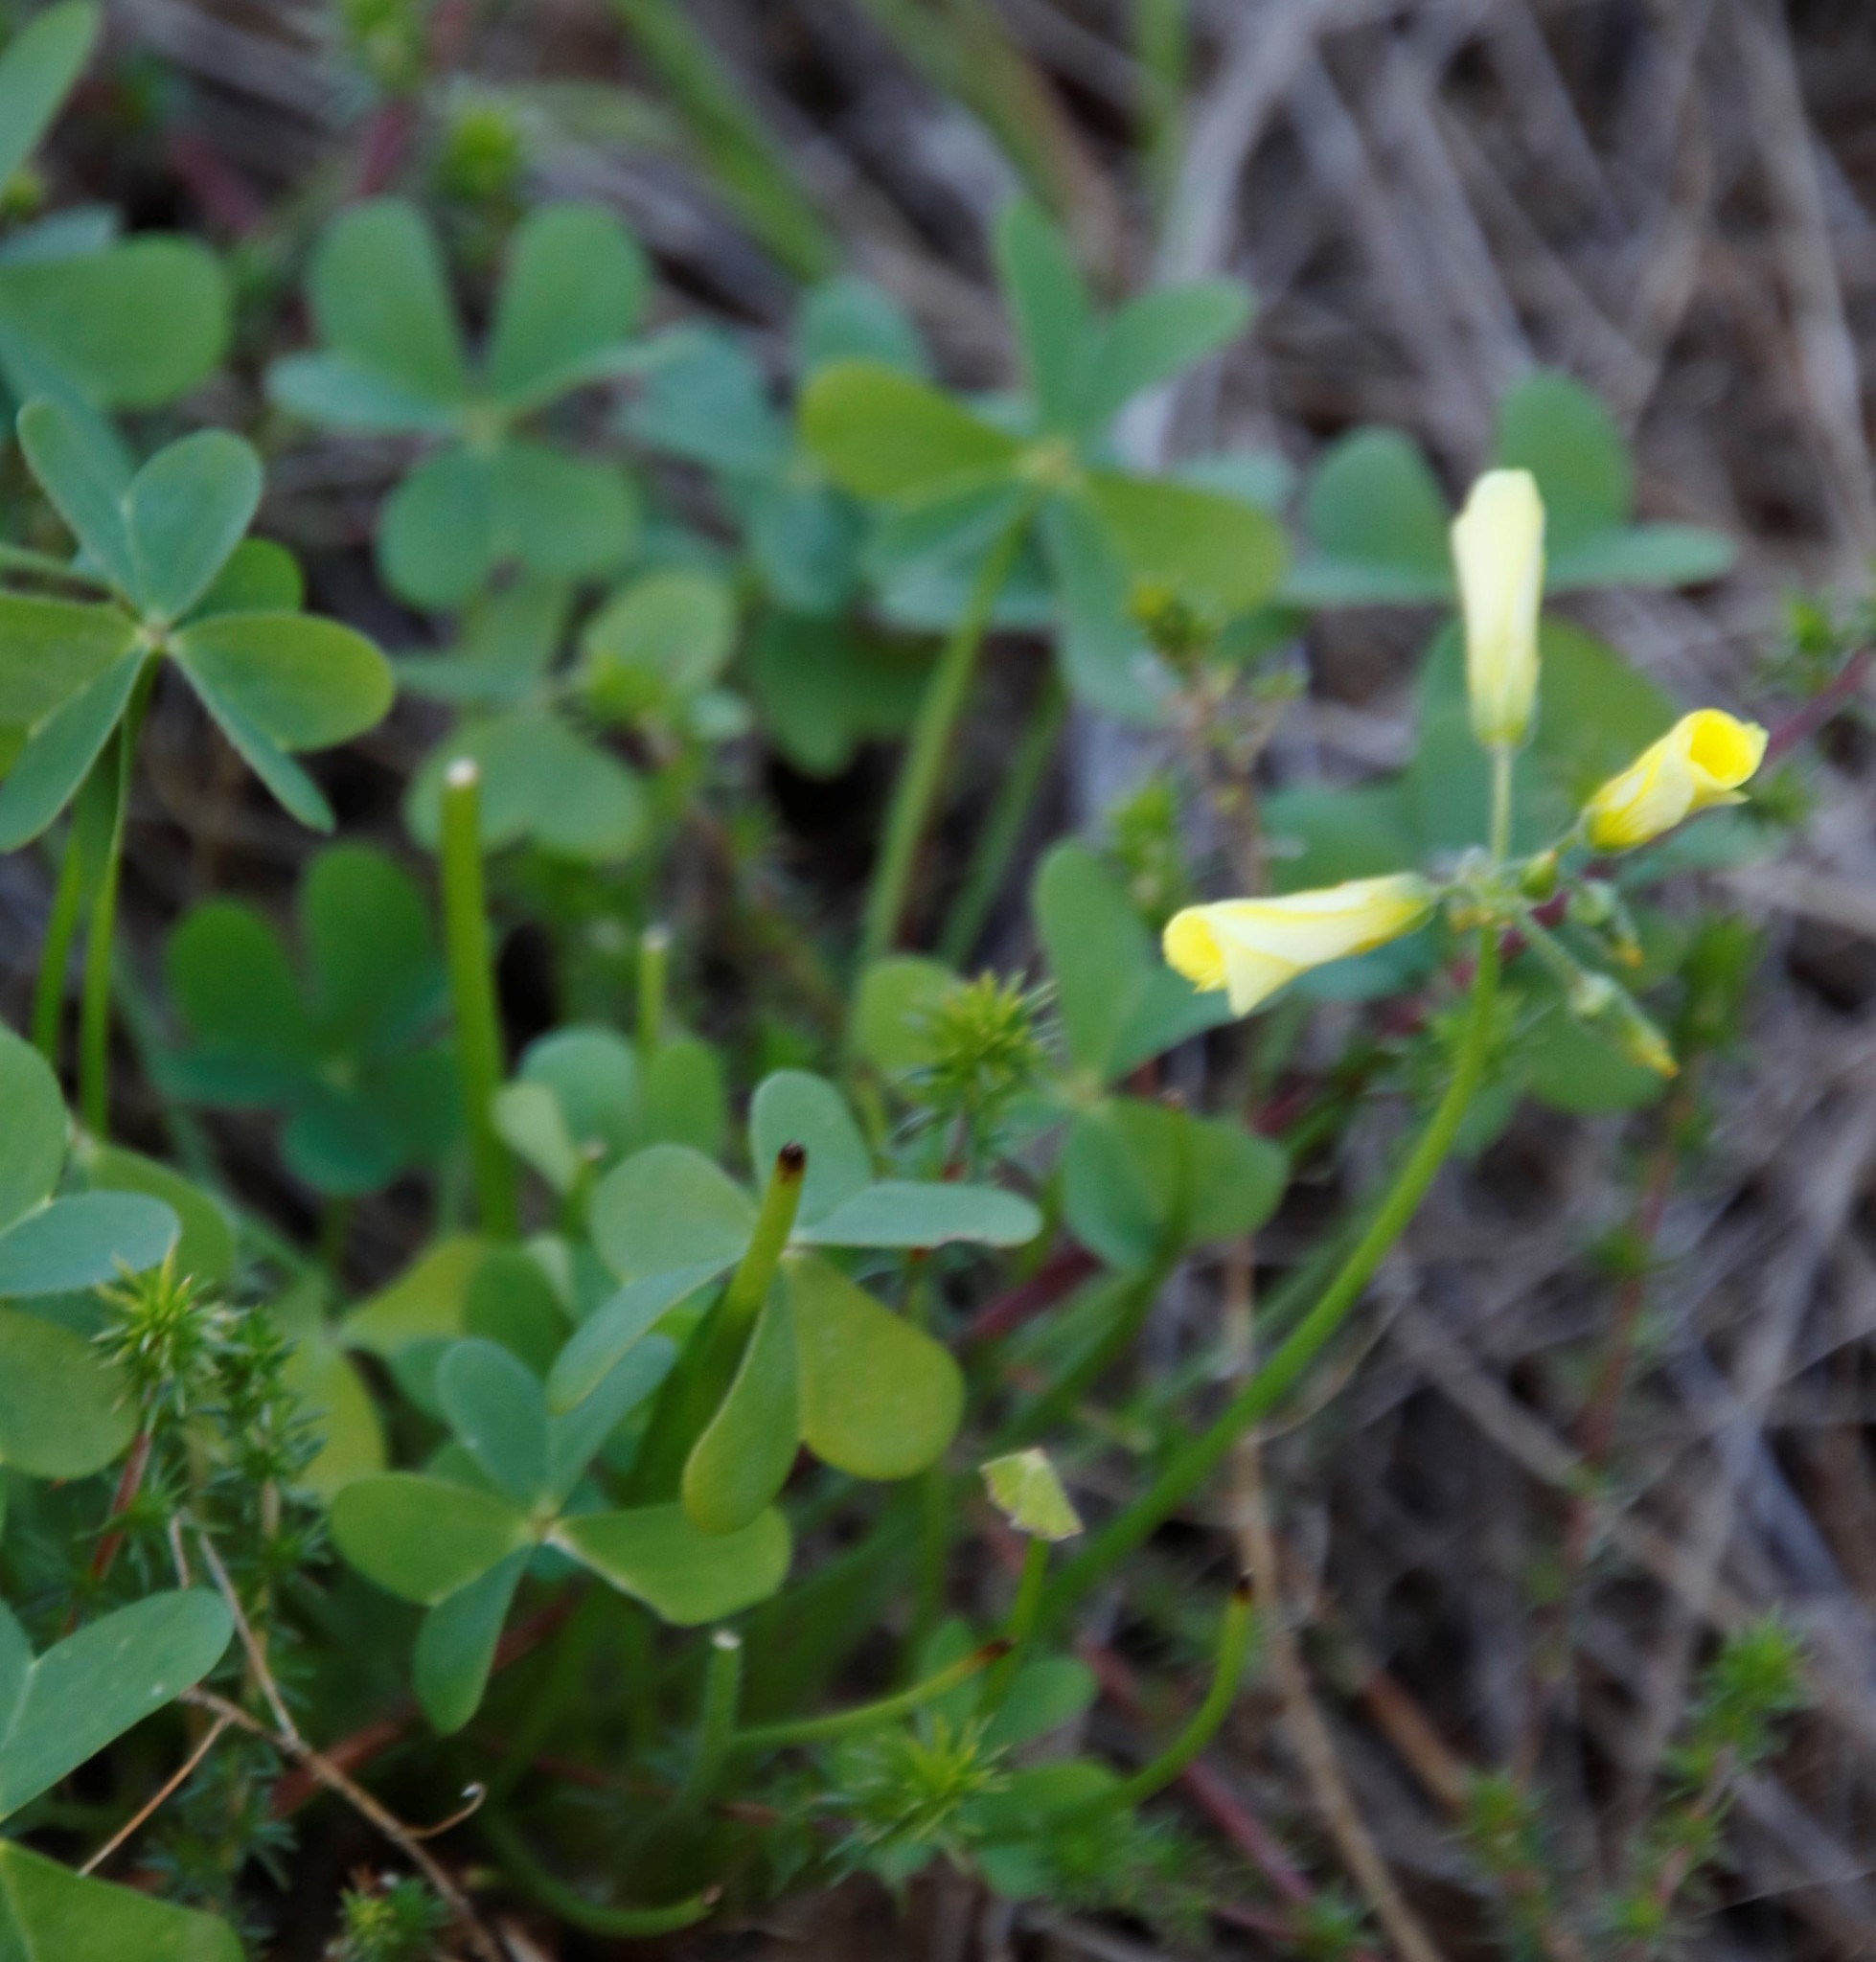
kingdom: Plantae
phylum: Tracheophyta
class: Magnoliopsida
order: Oxalidales
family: Oxalidaceae
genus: Oxalis
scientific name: Oxalis pes-caprae
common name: Bermuda-buttercup
